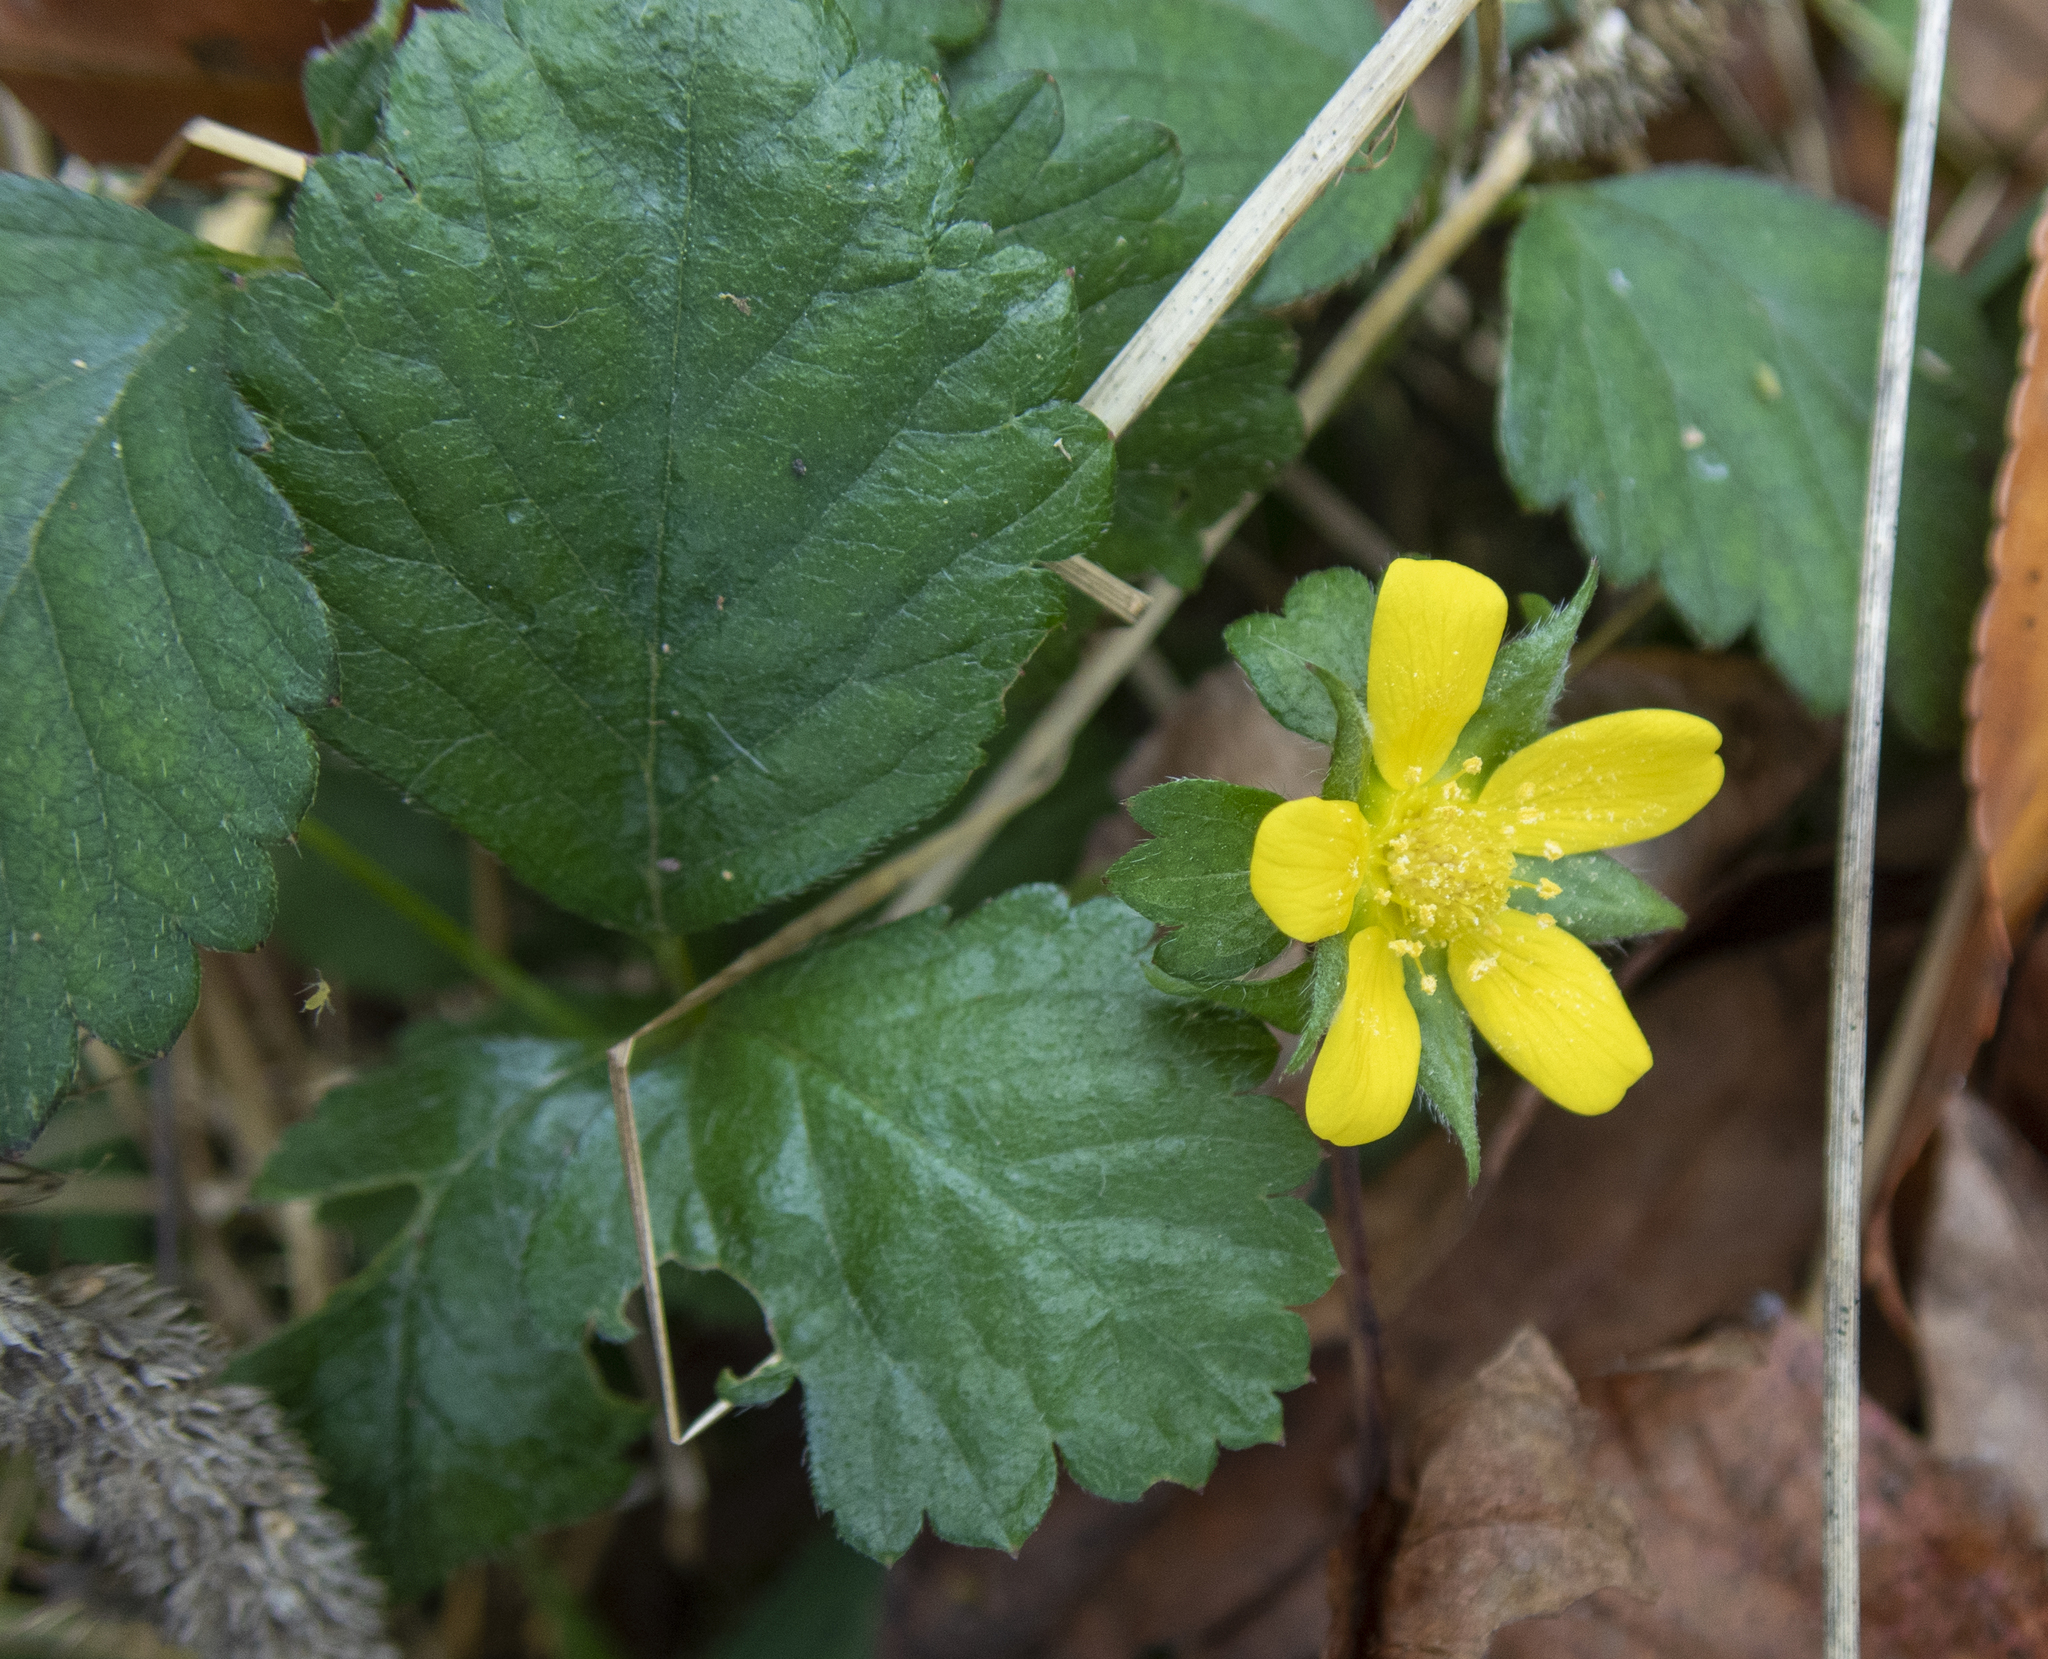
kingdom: Plantae
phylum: Tracheophyta
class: Magnoliopsida
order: Rosales
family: Rosaceae
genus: Potentilla
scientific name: Potentilla indica
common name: Yellow-flowered strawberry
